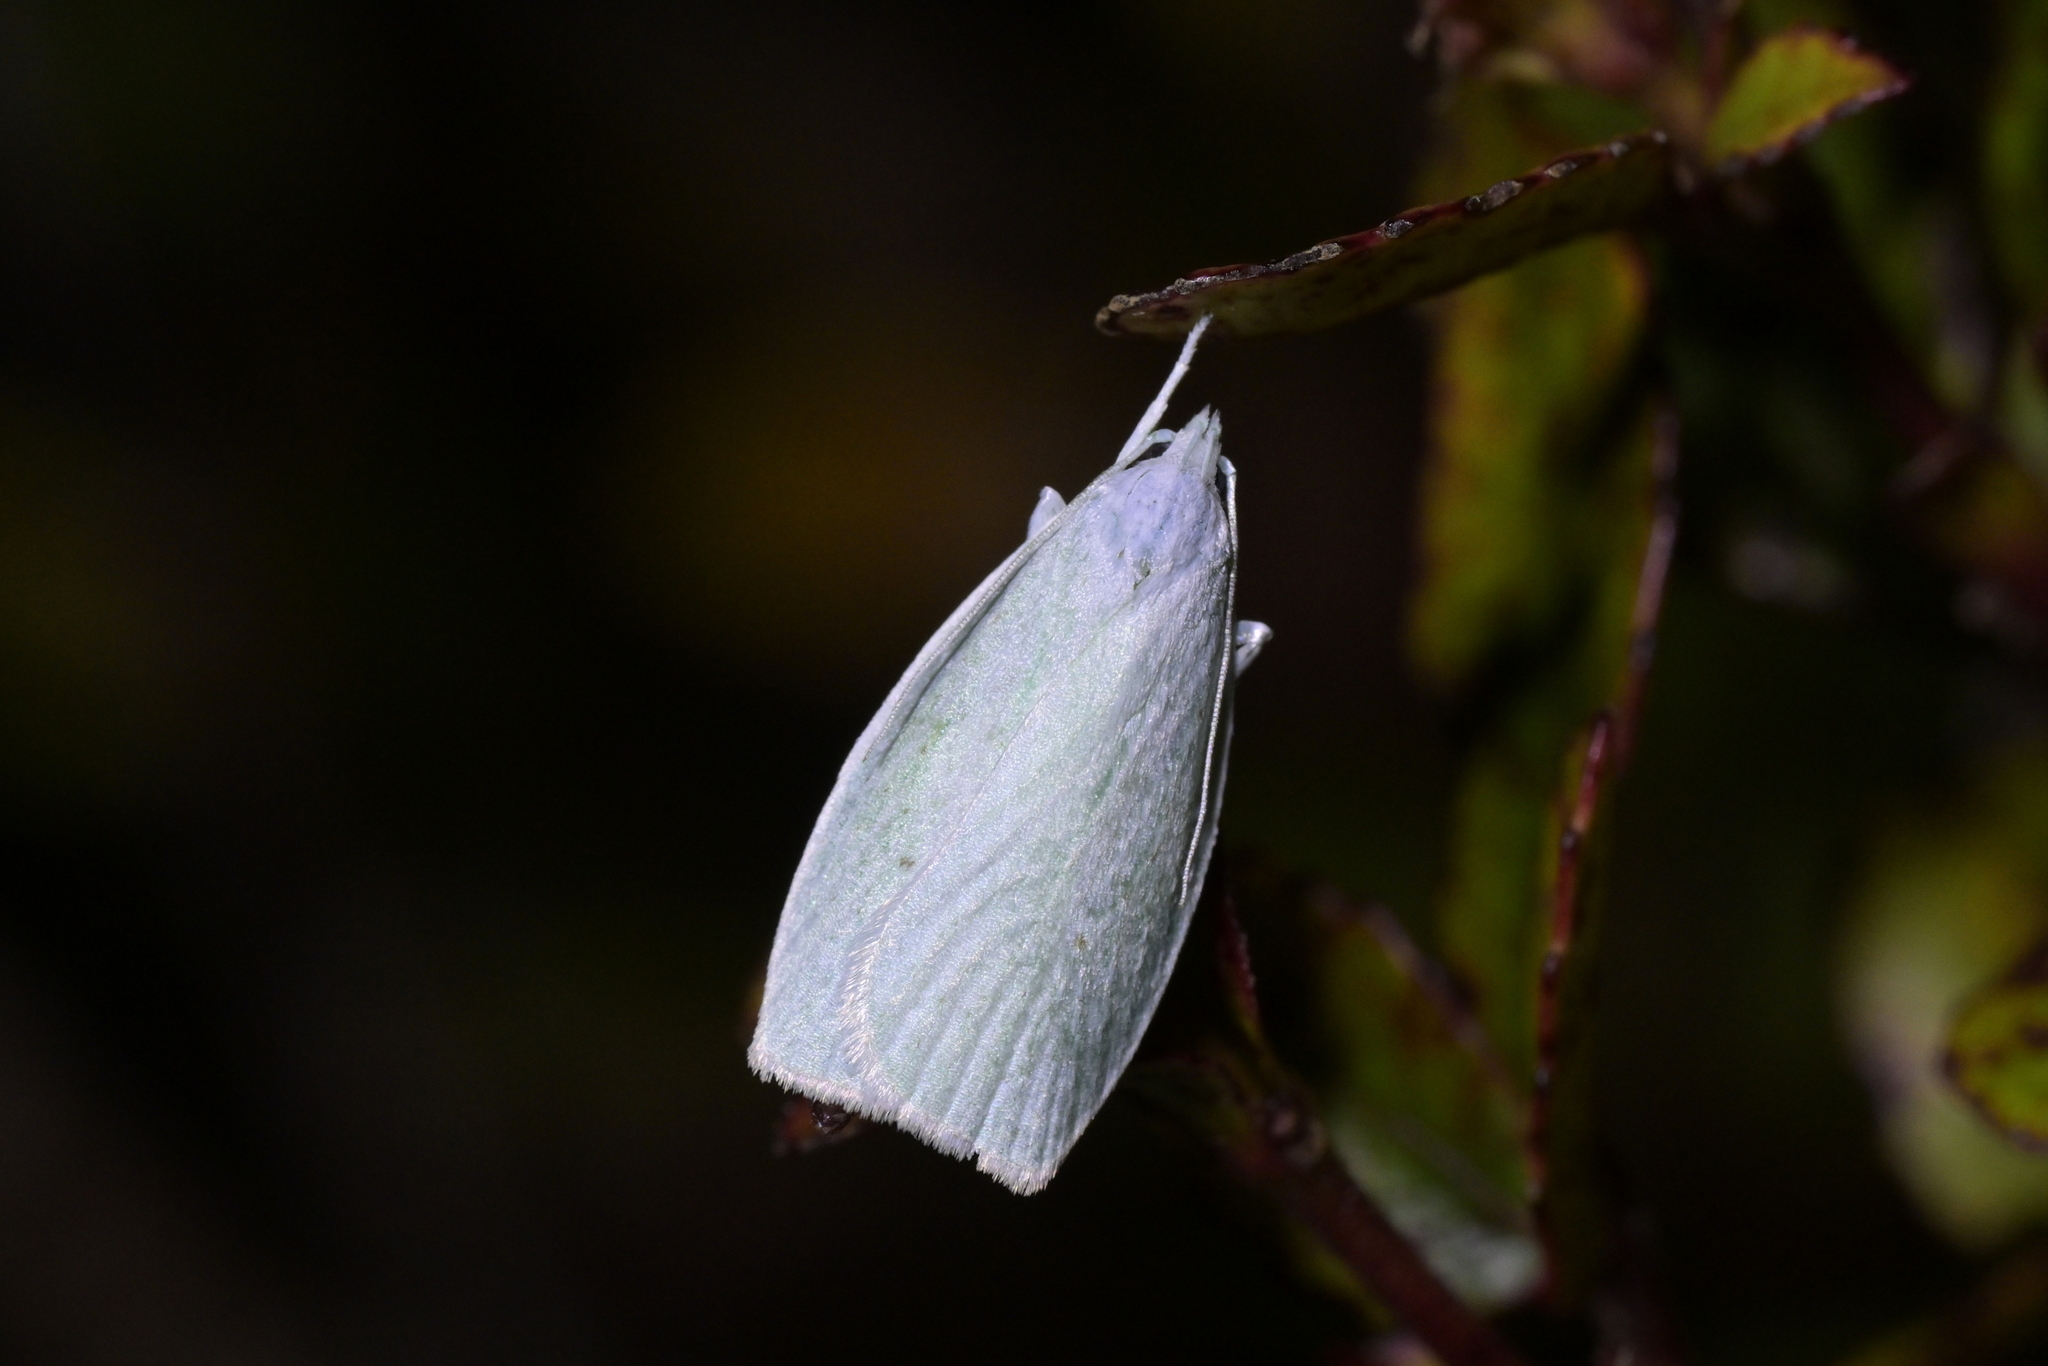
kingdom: Animalia
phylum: Arthropoda
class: Insecta
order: Lepidoptera
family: Oecophoridae
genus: Nymphostola
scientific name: Nymphostola galactina
